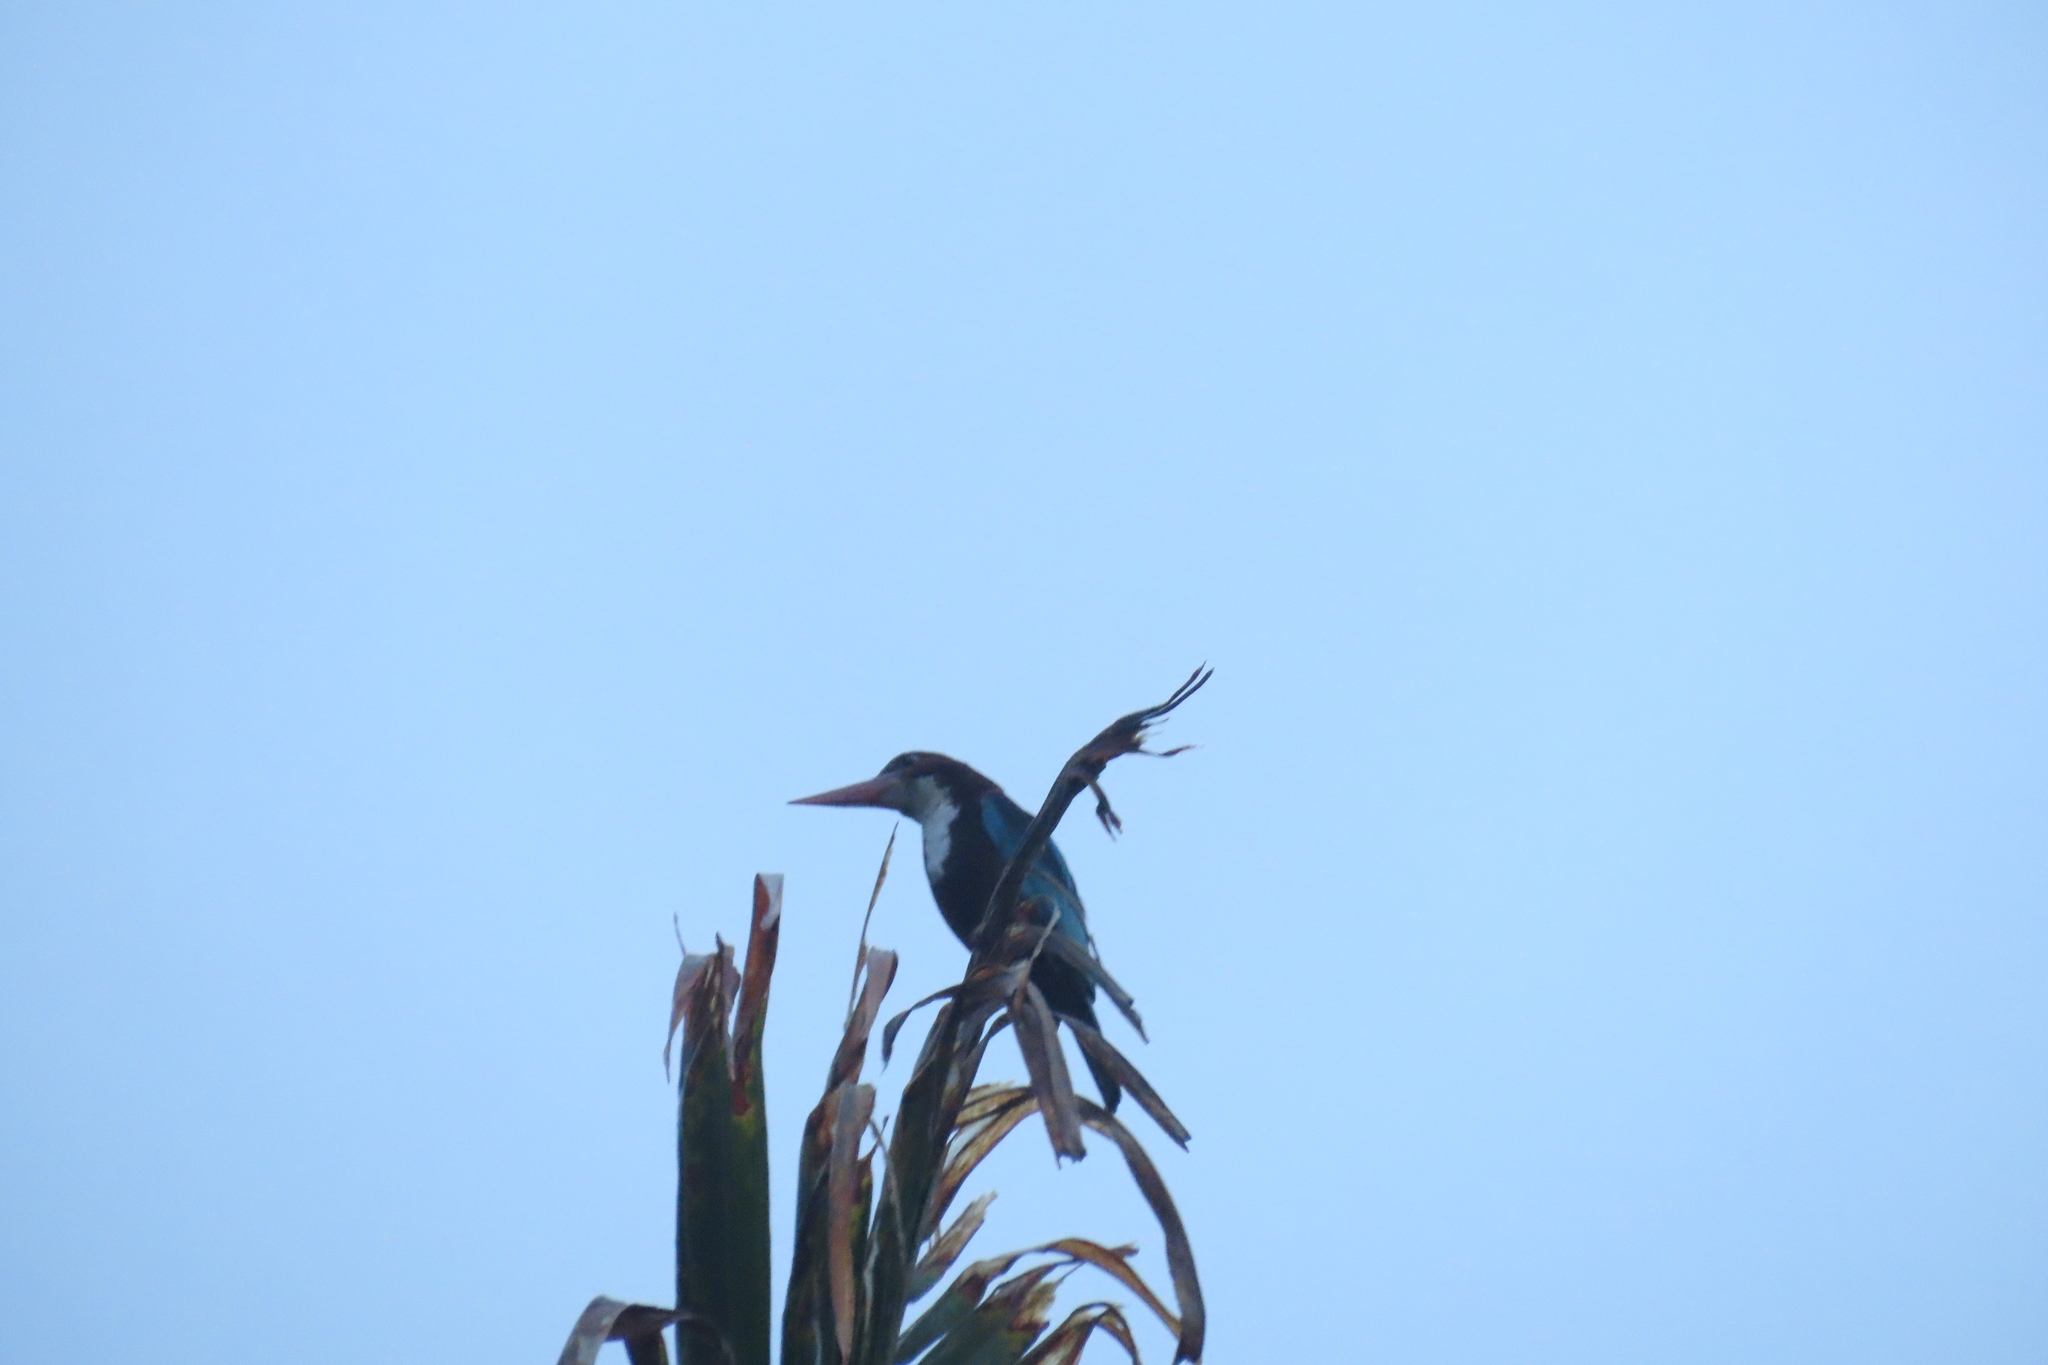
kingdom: Animalia
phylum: Chordata
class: Aves
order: Coraciiformes
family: Alcedinidae
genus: Halcyon
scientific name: Halcyon smyrnensis
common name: White-throated kingfisher
